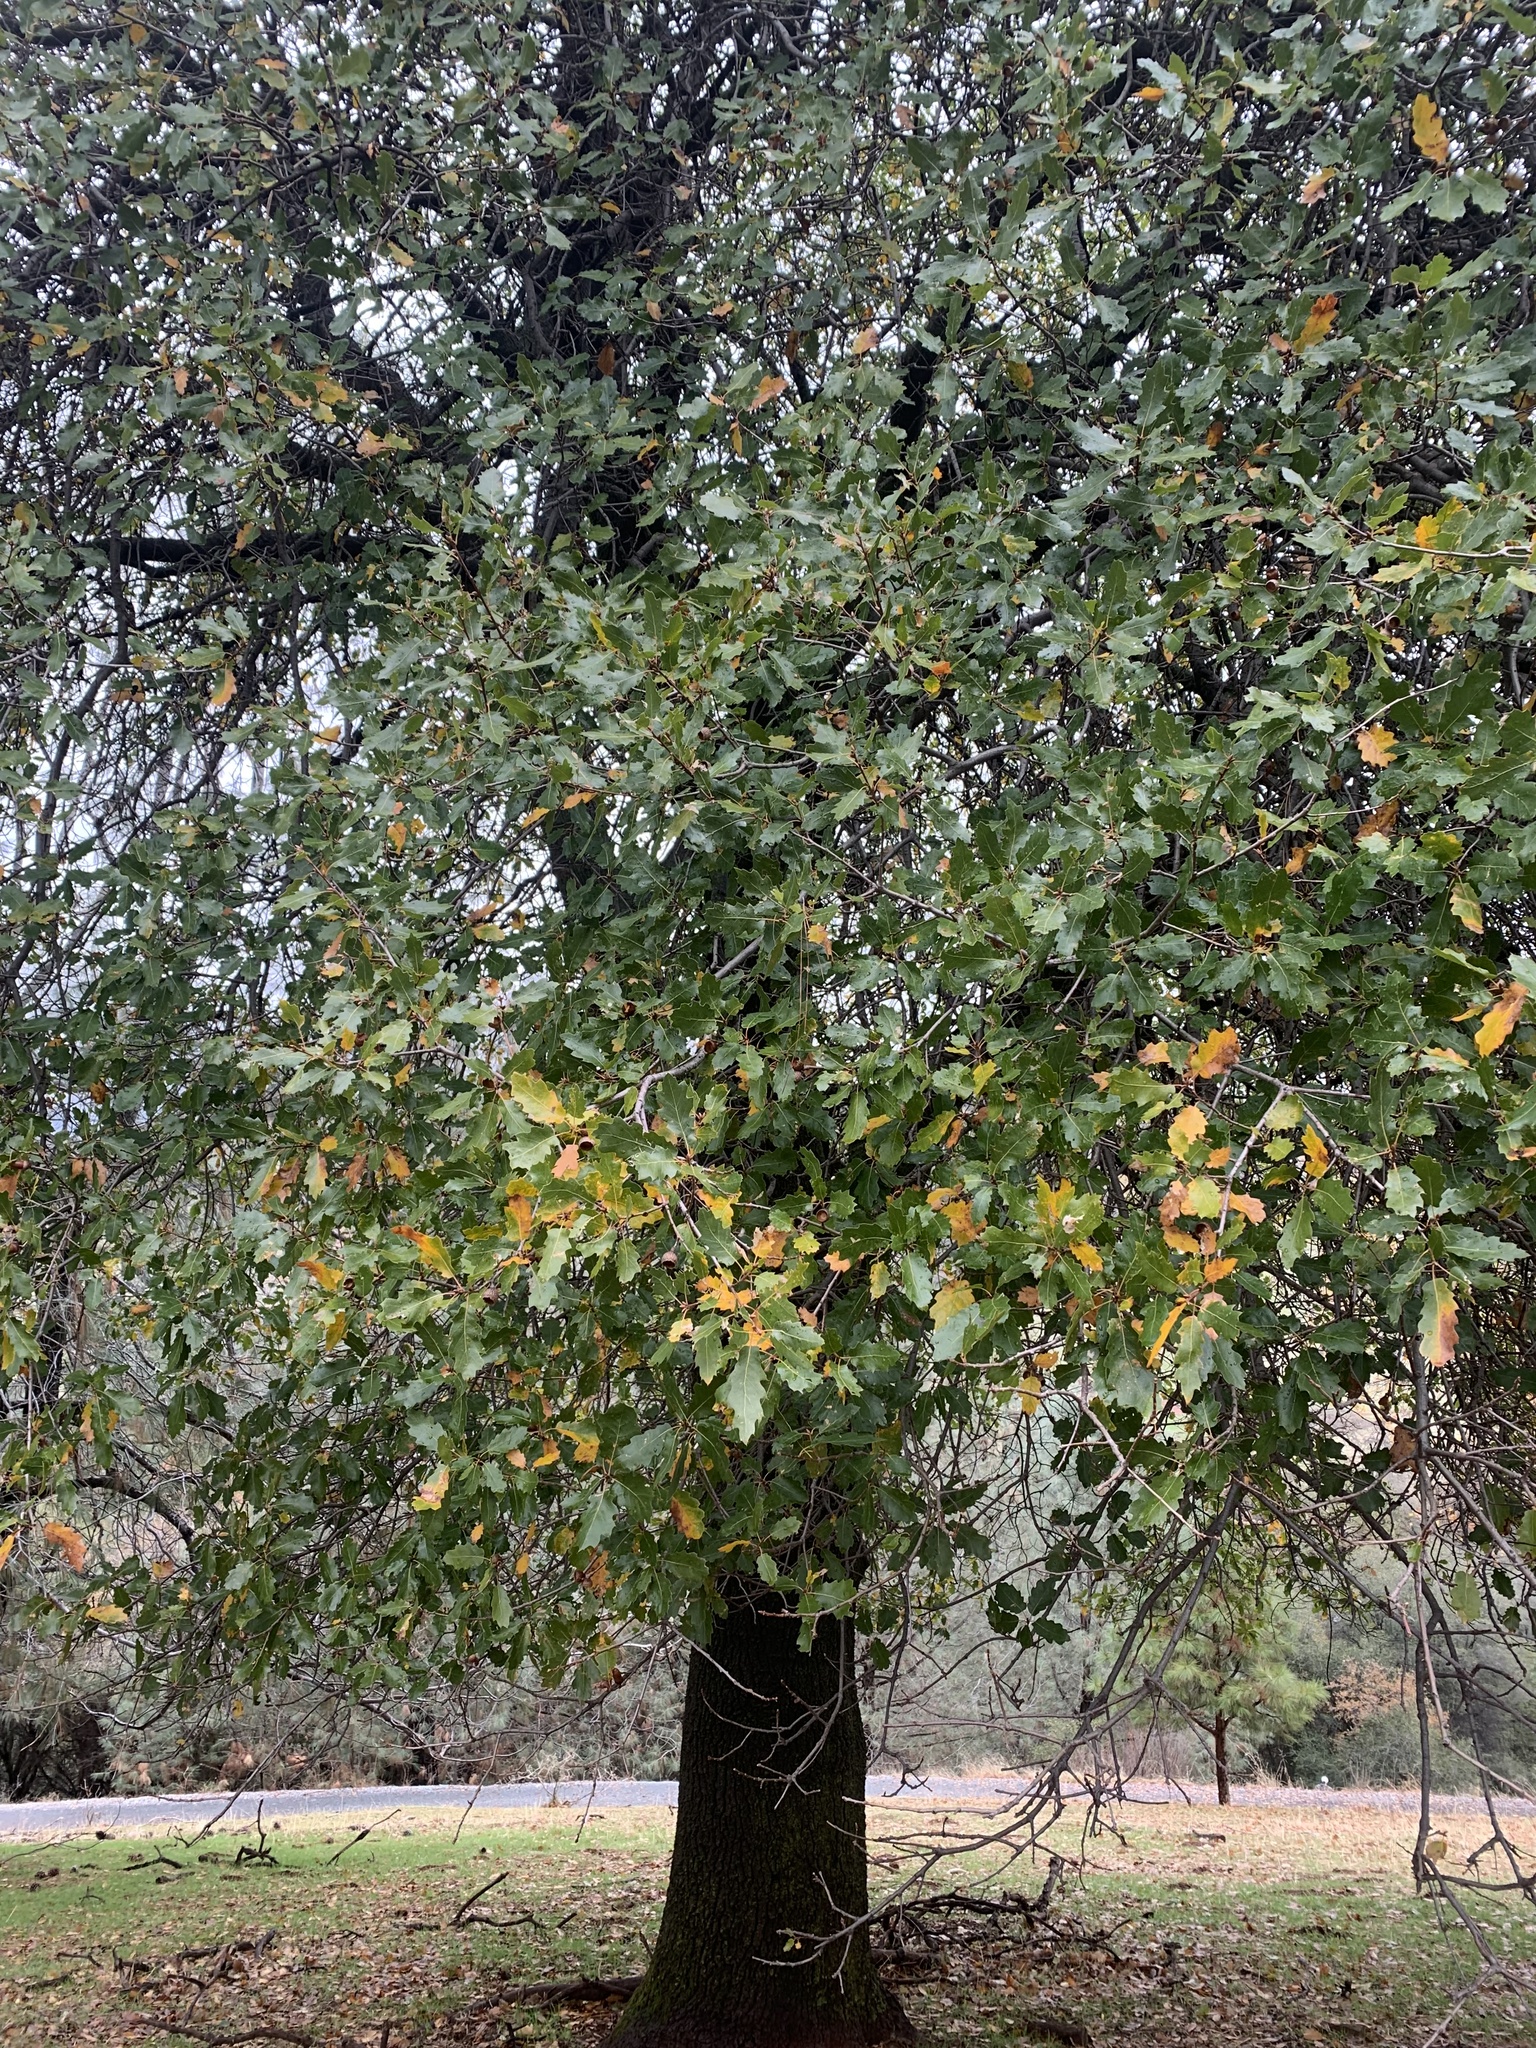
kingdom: Plantae
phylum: Tracheophyta
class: Magnoliopsida
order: Fagales
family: Fagaceae
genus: Quercus
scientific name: Quercus morehus
